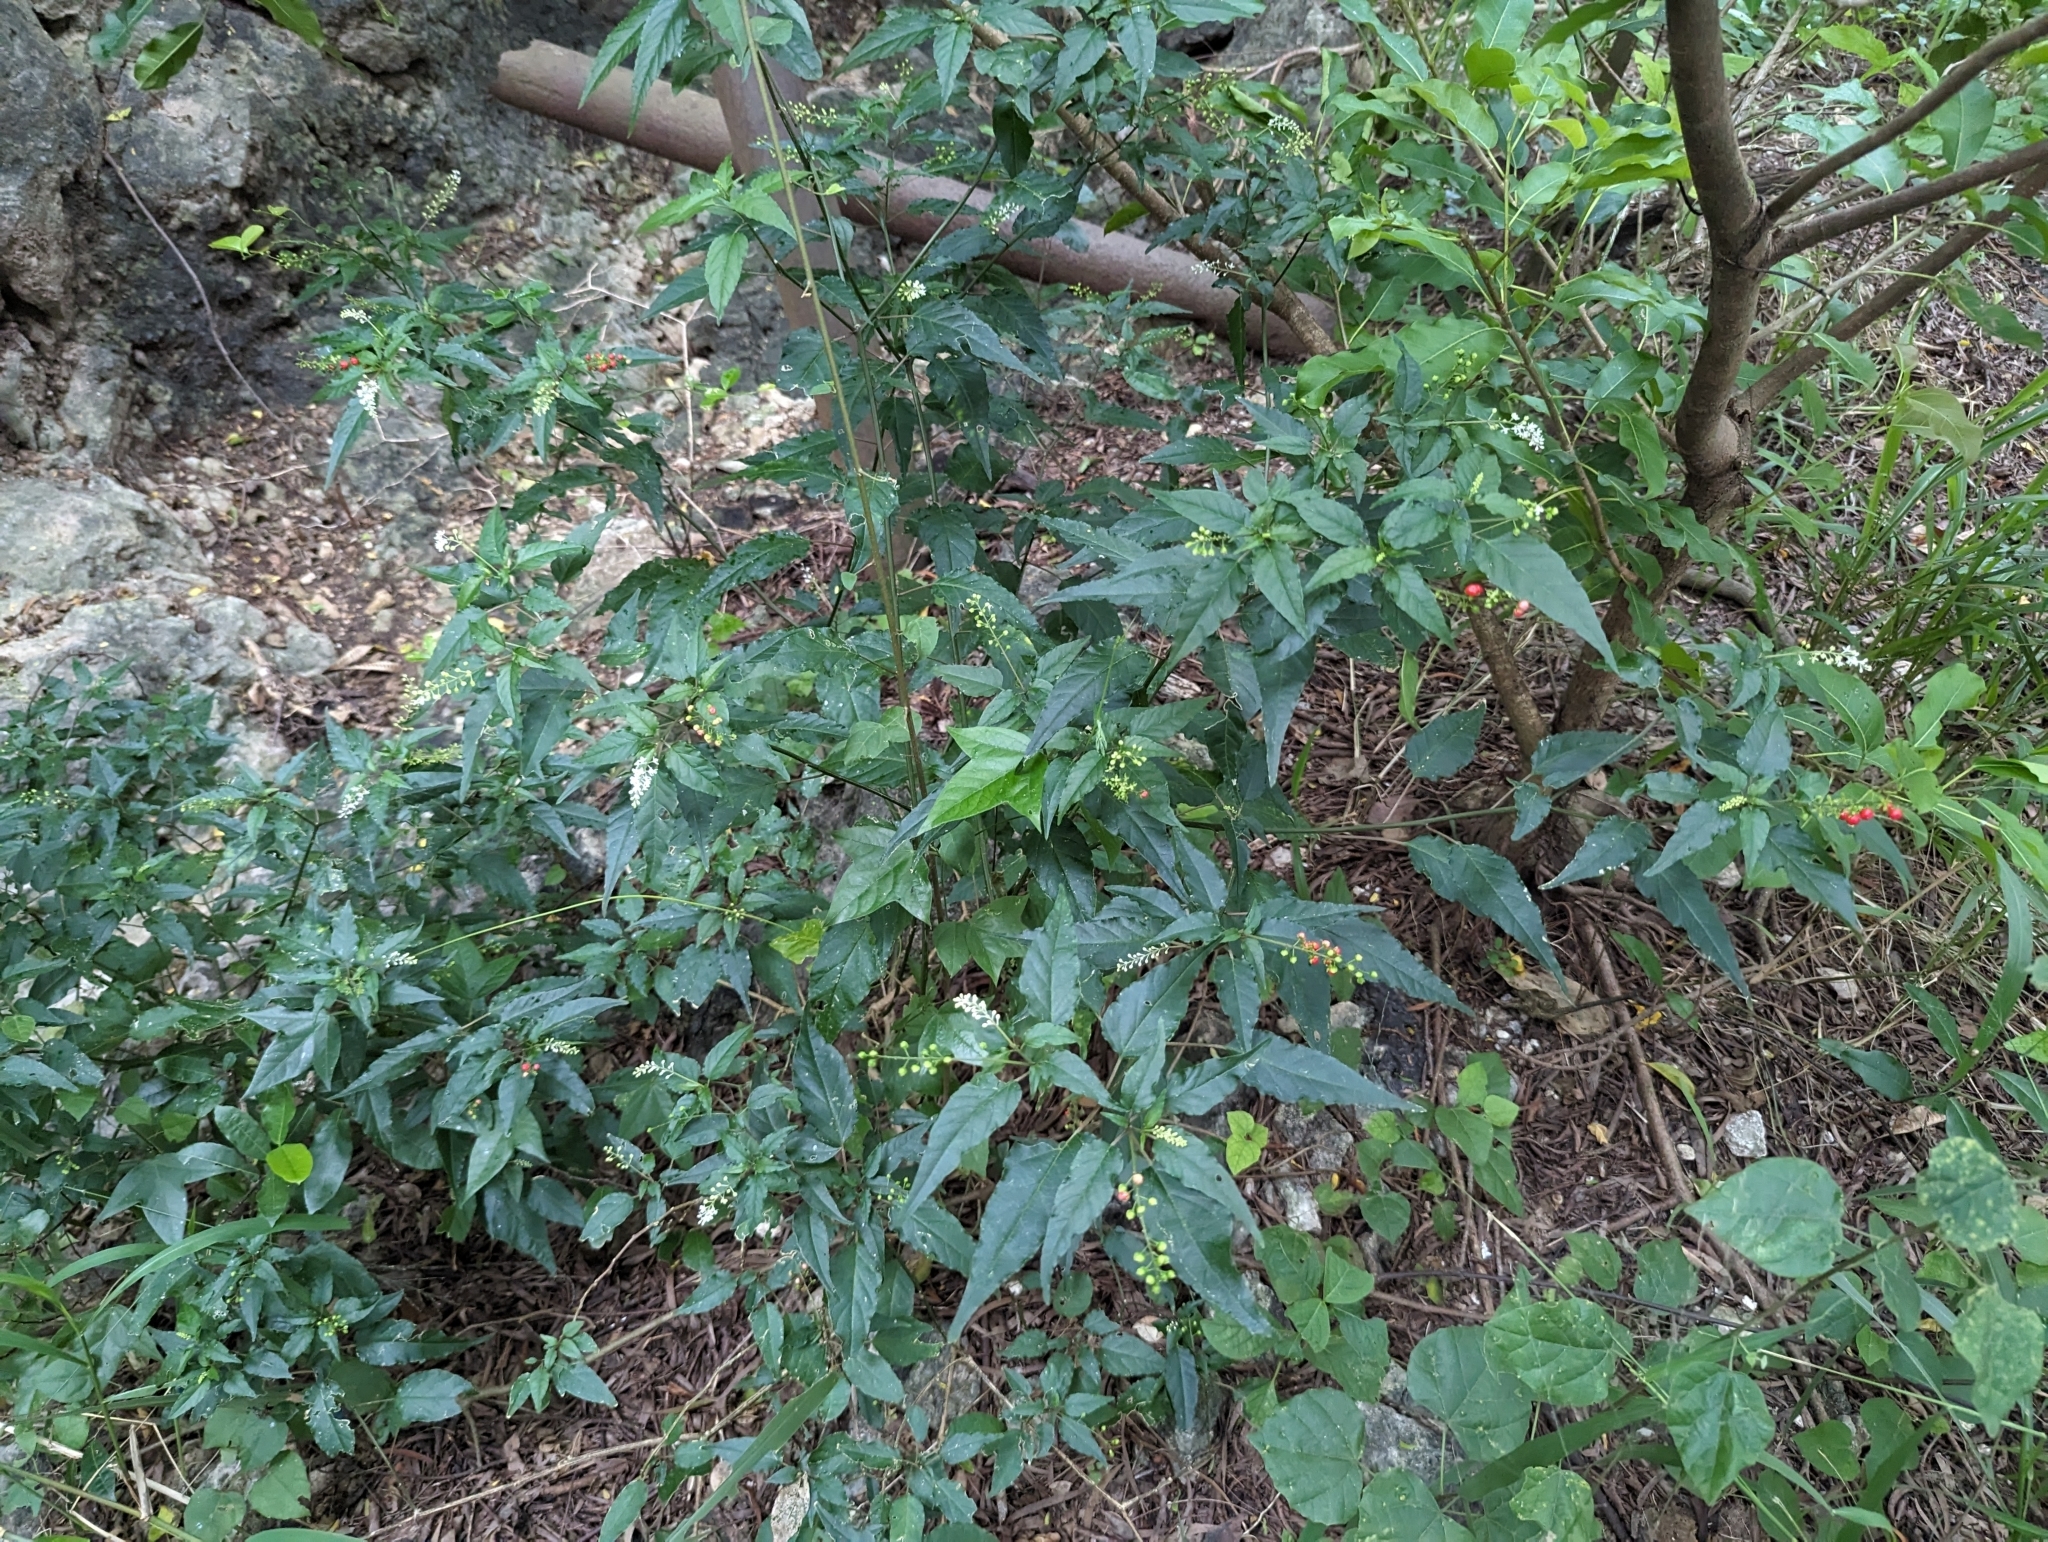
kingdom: Plantae
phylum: Tracheophyta
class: Magnoliopsida
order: Caryophyllales
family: Phytolaccaceae
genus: Rivina
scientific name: Rivina humilis
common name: Rougeplant
